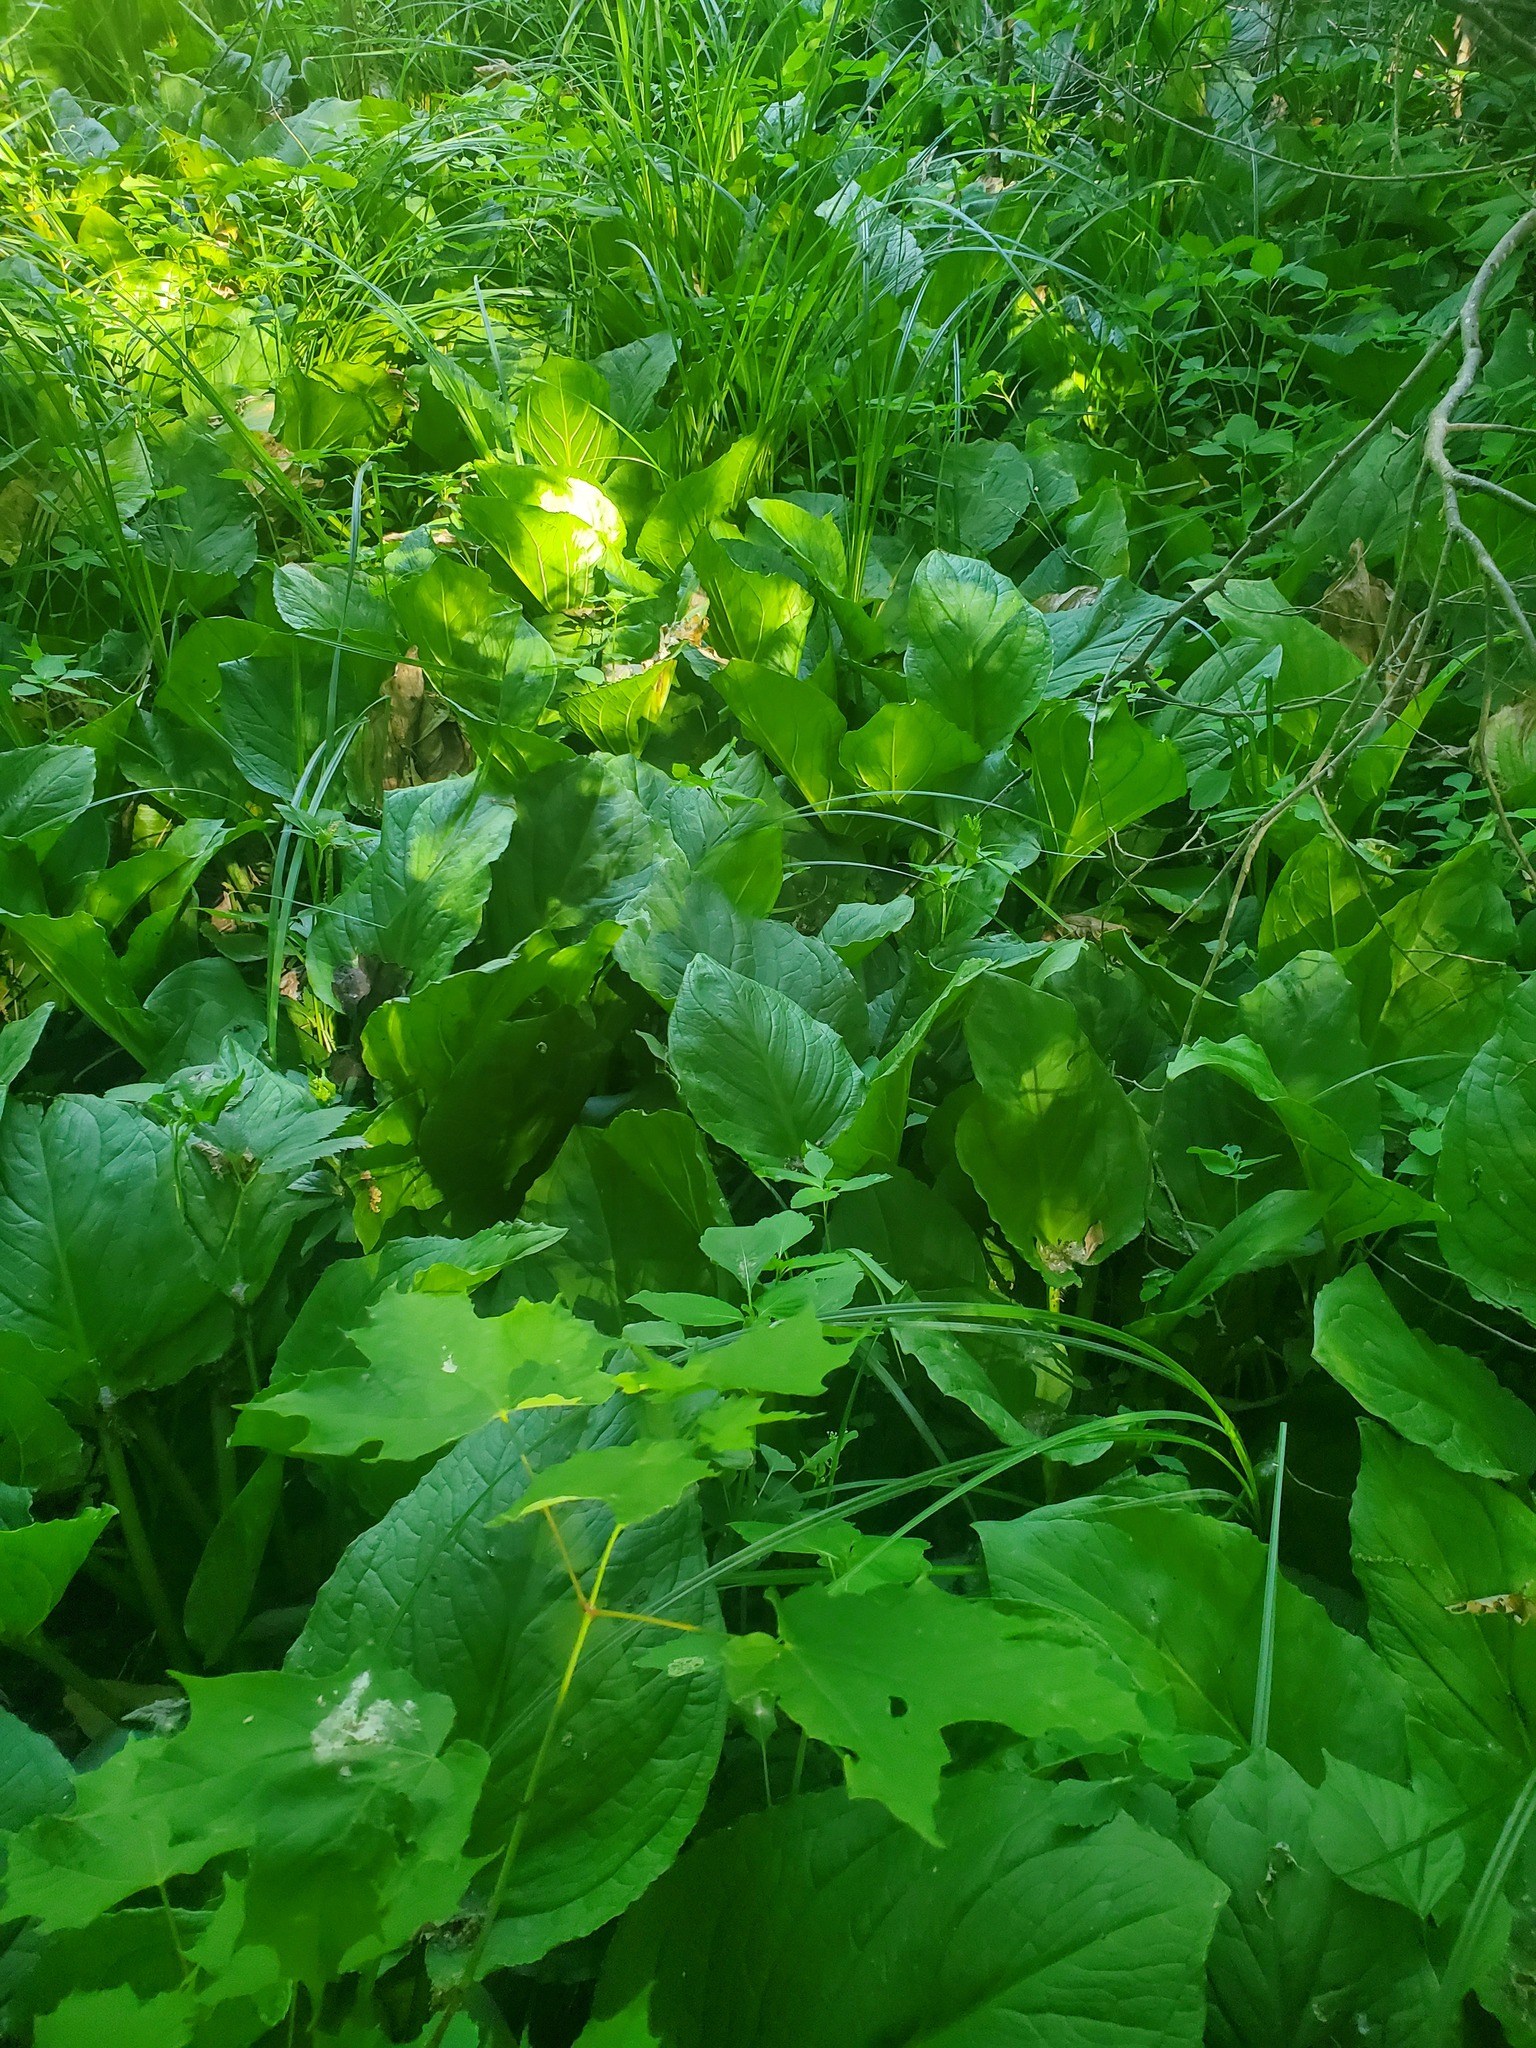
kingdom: Plantae
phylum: Tracheophyta
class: Liliopsida
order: Alismatales
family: Araceae
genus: Symplocarpus
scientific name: Symplocarpus foetidus
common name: Eastern skunk cabbage
